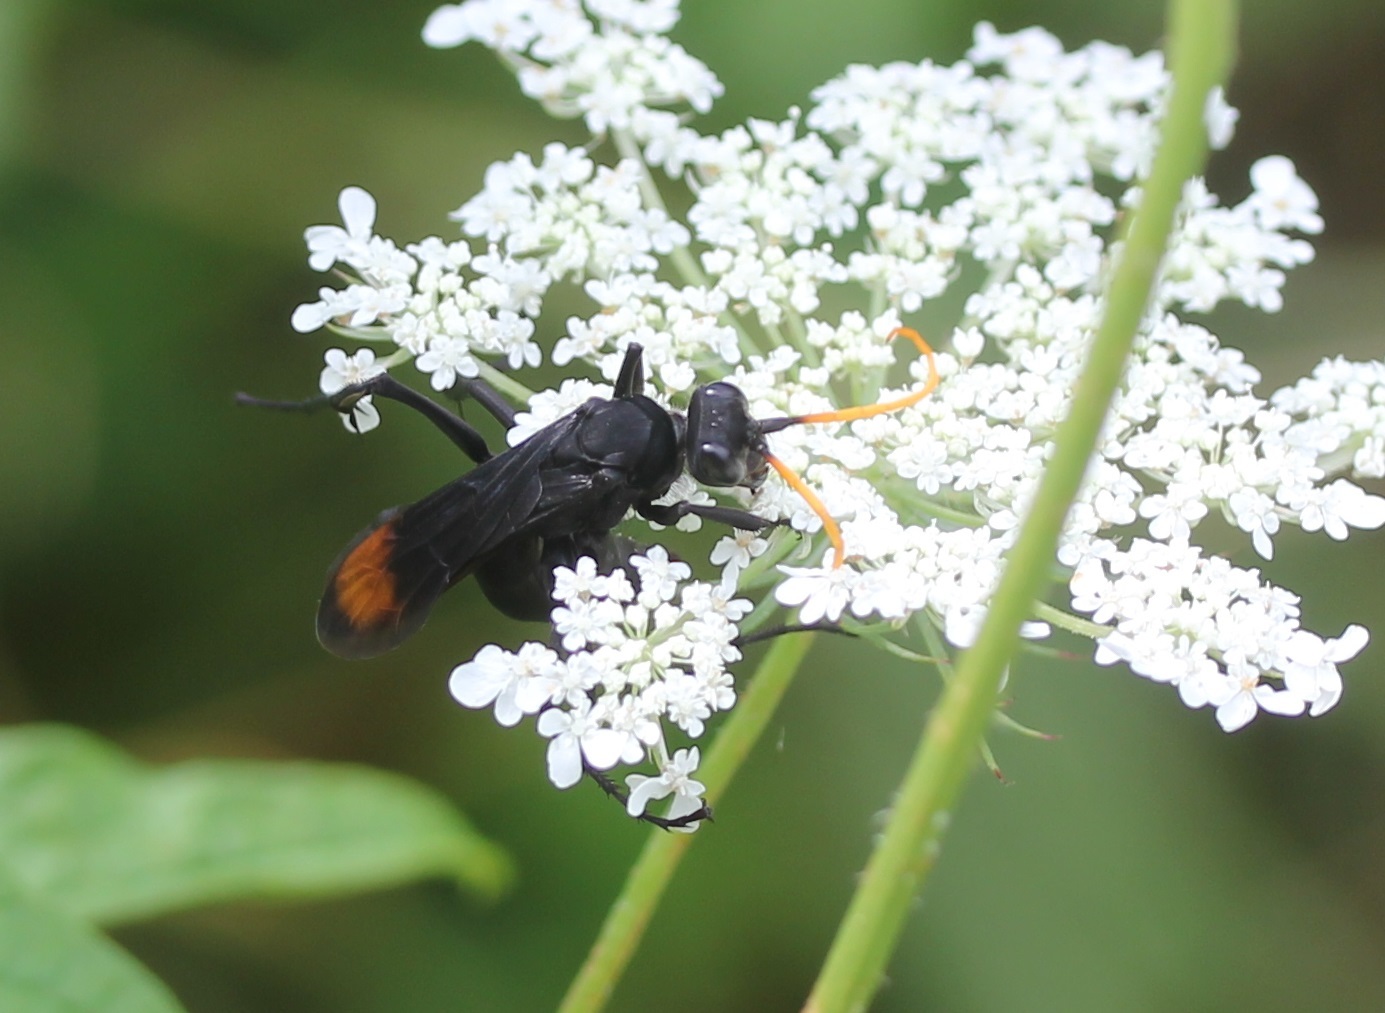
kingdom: Animalia
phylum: Arthropoda
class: Insecta
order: Hymenoptera
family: Pompilidae
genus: Entypus
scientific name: Entypus unifasciatus
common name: Eastern tawny-horned spider wasp
